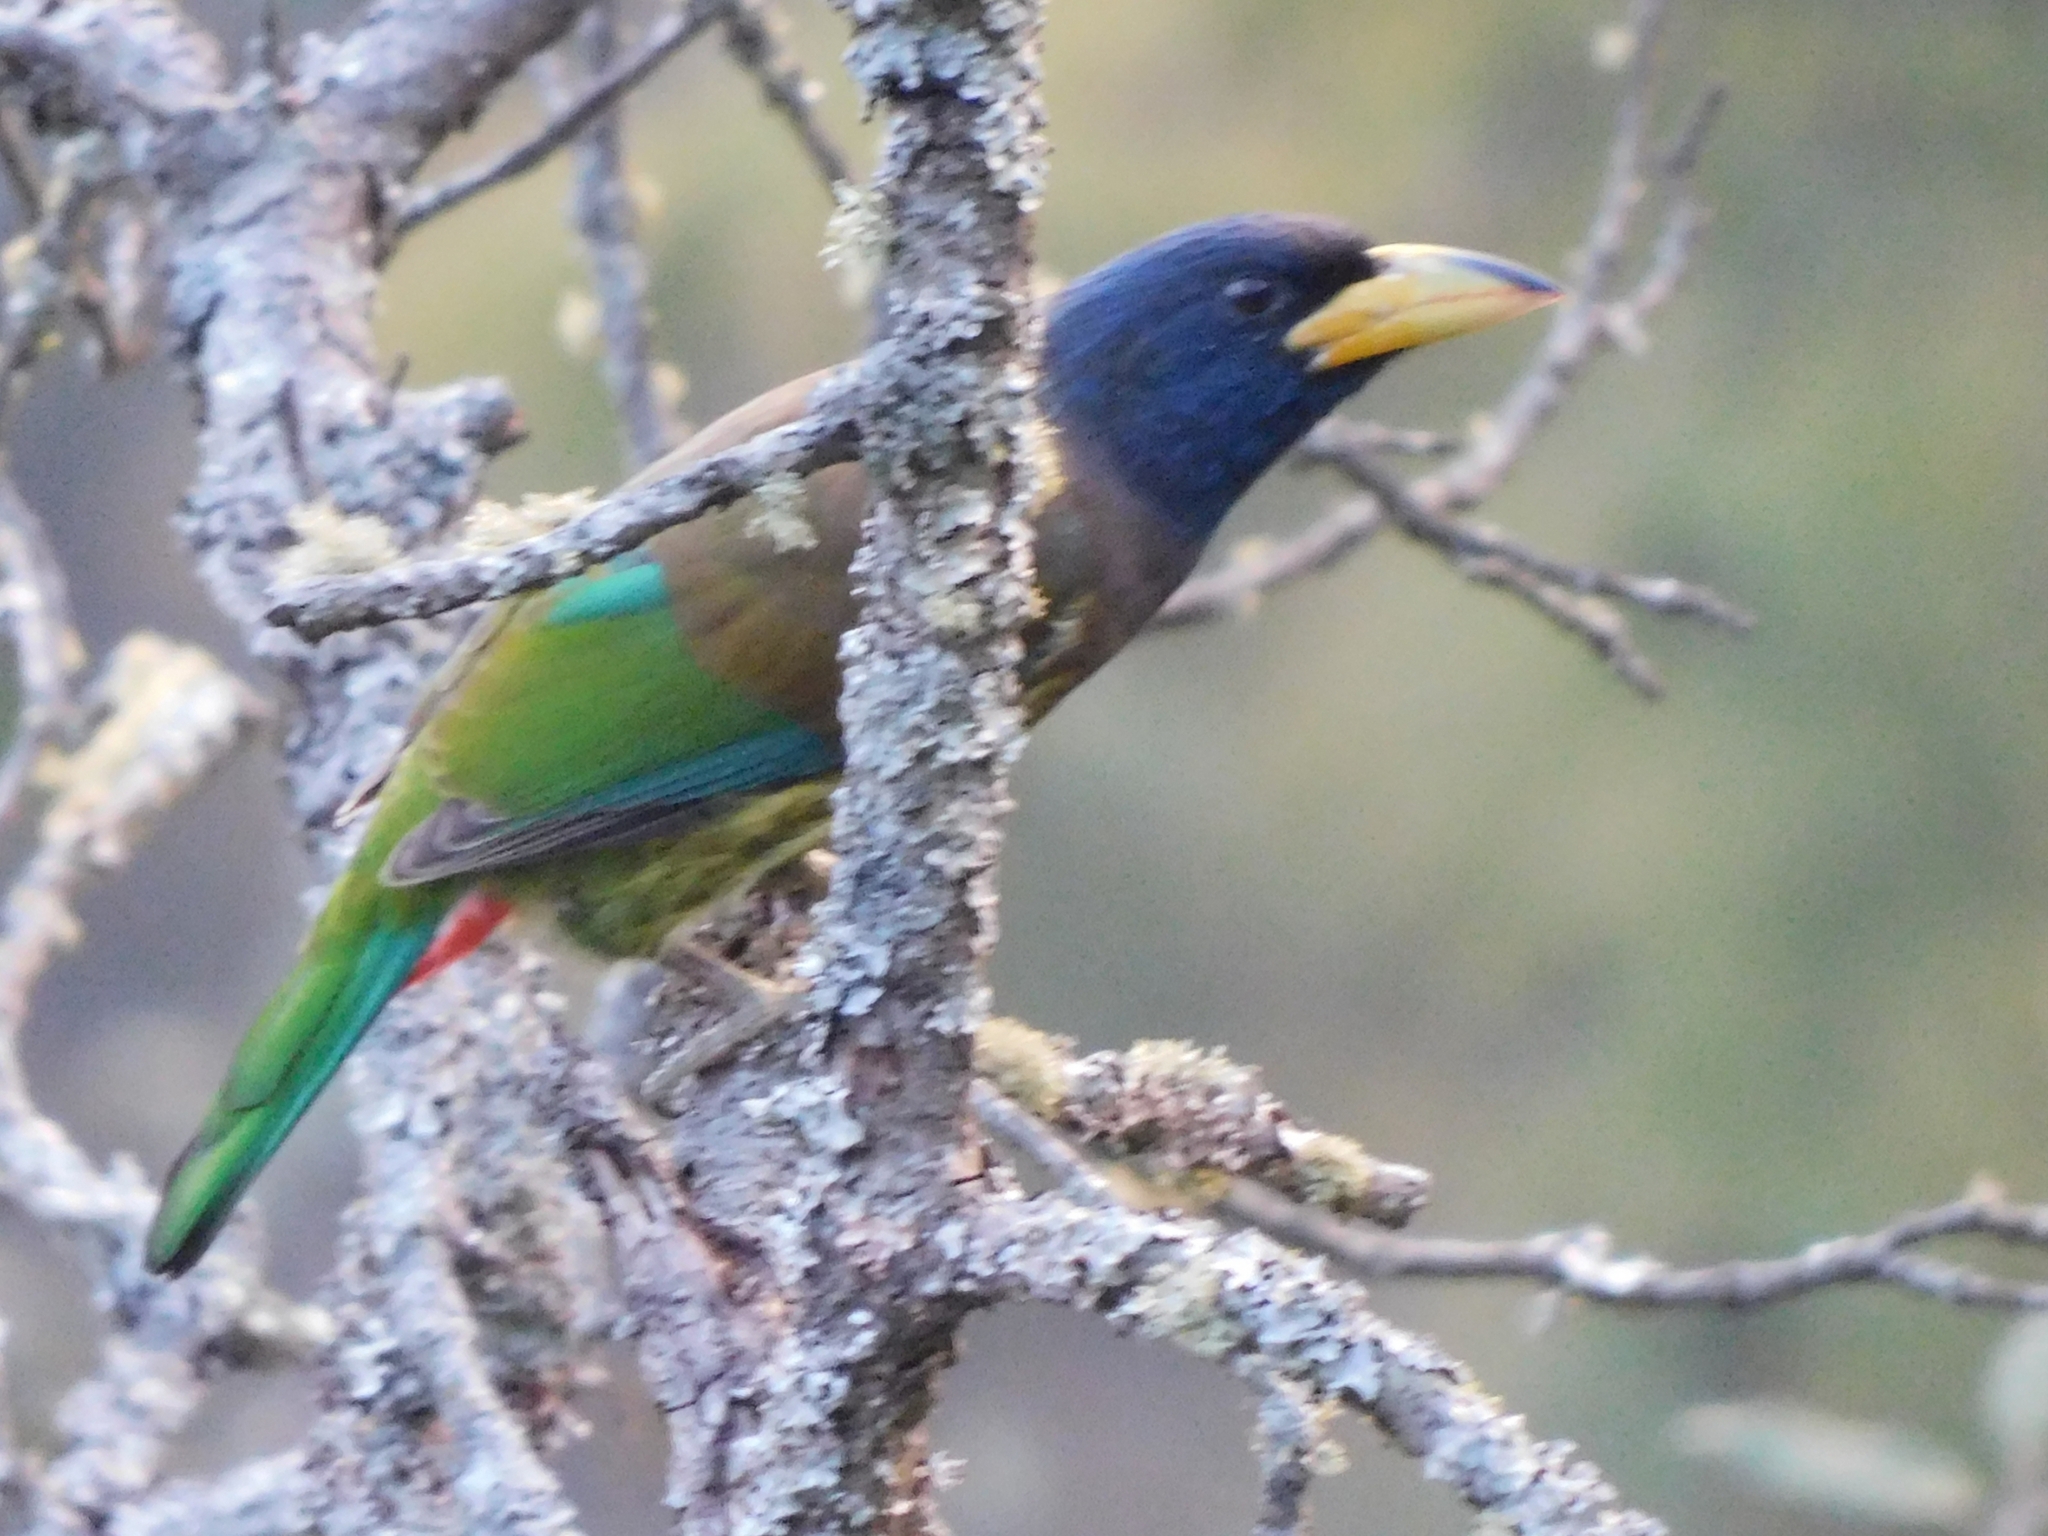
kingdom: Animalia
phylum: Chordata
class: Aves
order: Piciformes
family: Megalaimidae
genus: Psilopogon
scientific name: Psilopogon virens
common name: Great barbet
